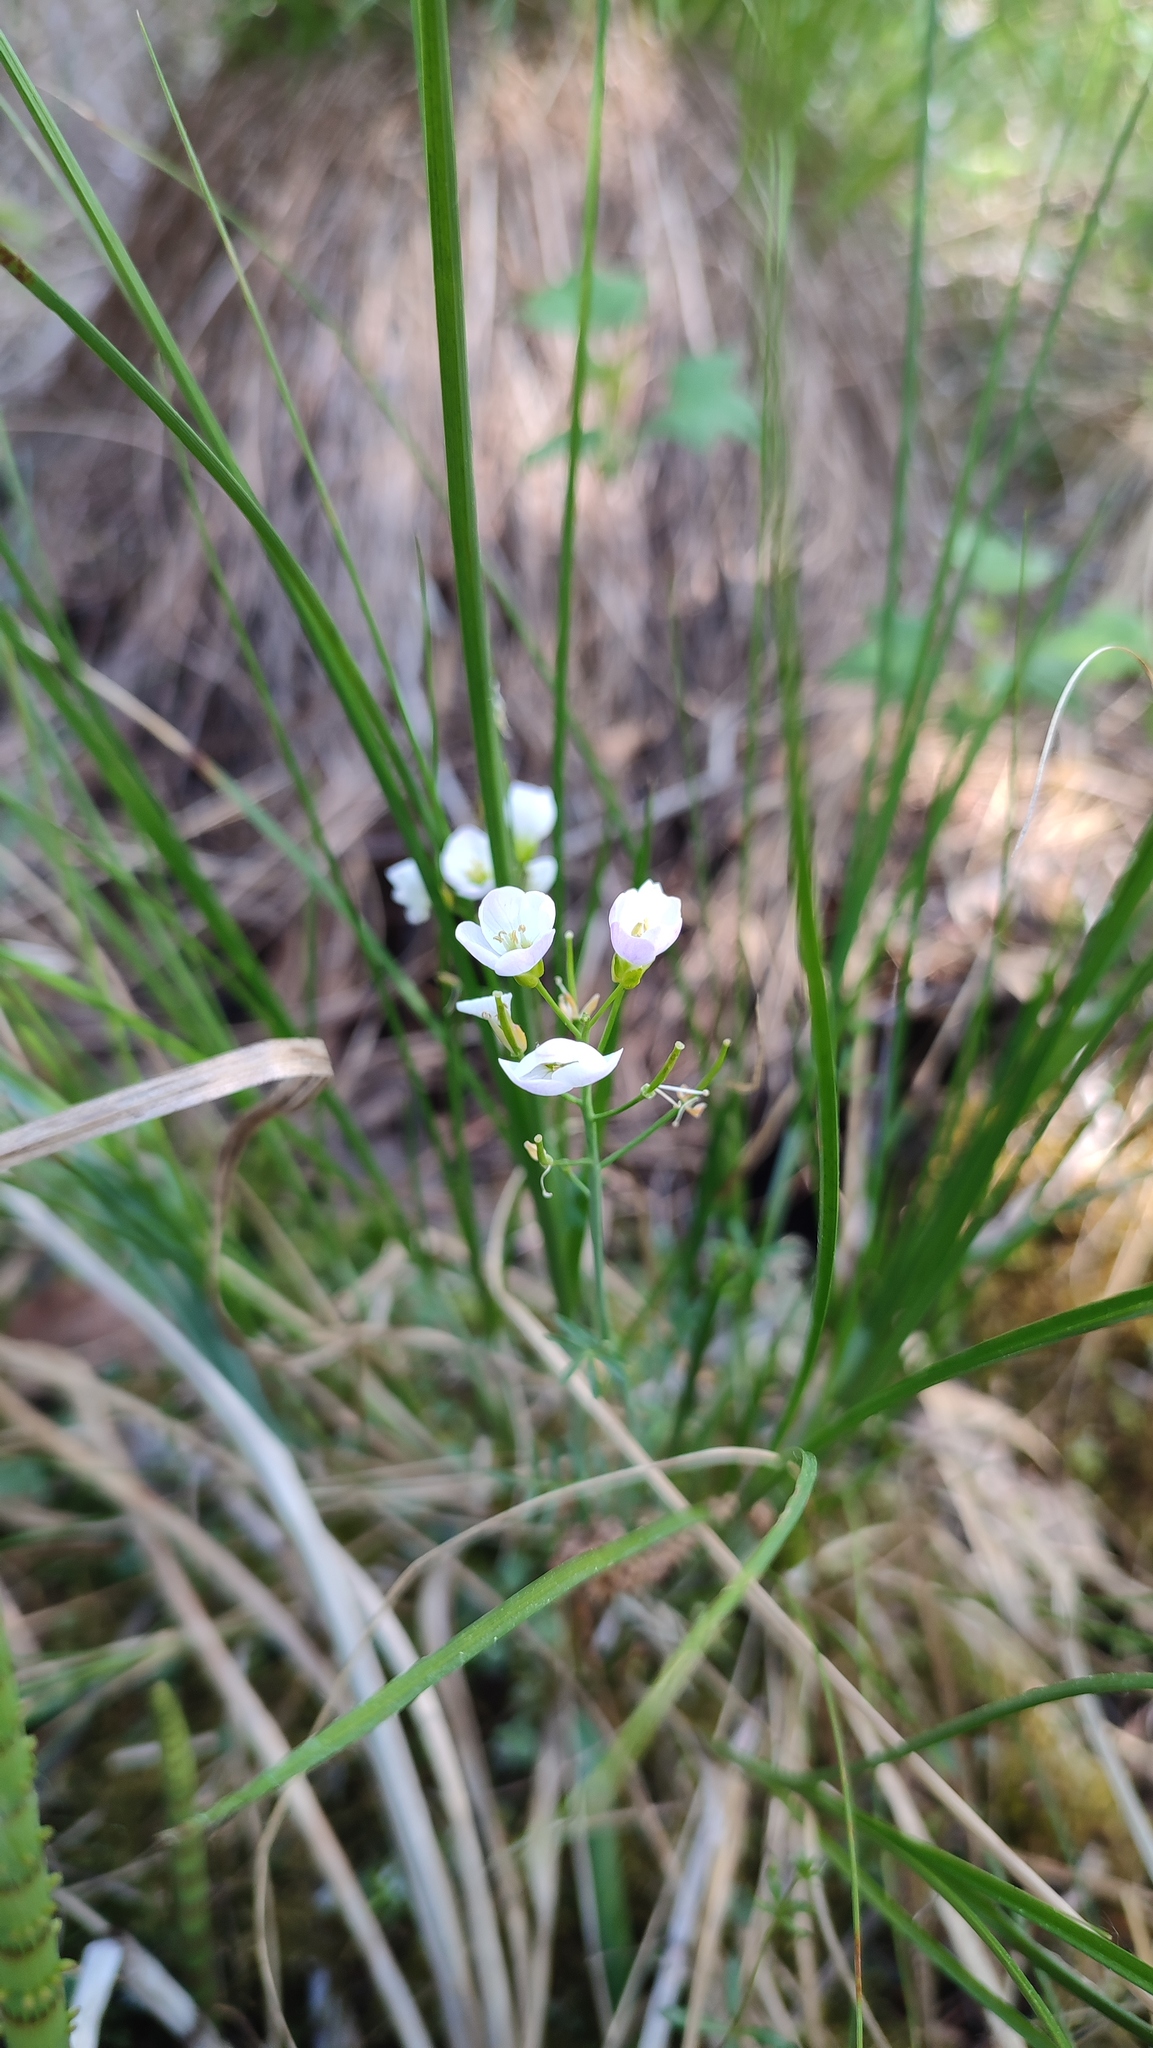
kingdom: Plantae
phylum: Tracheophyta
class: Magnoliopsida
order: Brassicales
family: Brassicaceae
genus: Cardamine
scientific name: Cardamine pratensis
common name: Cuckoo flower
